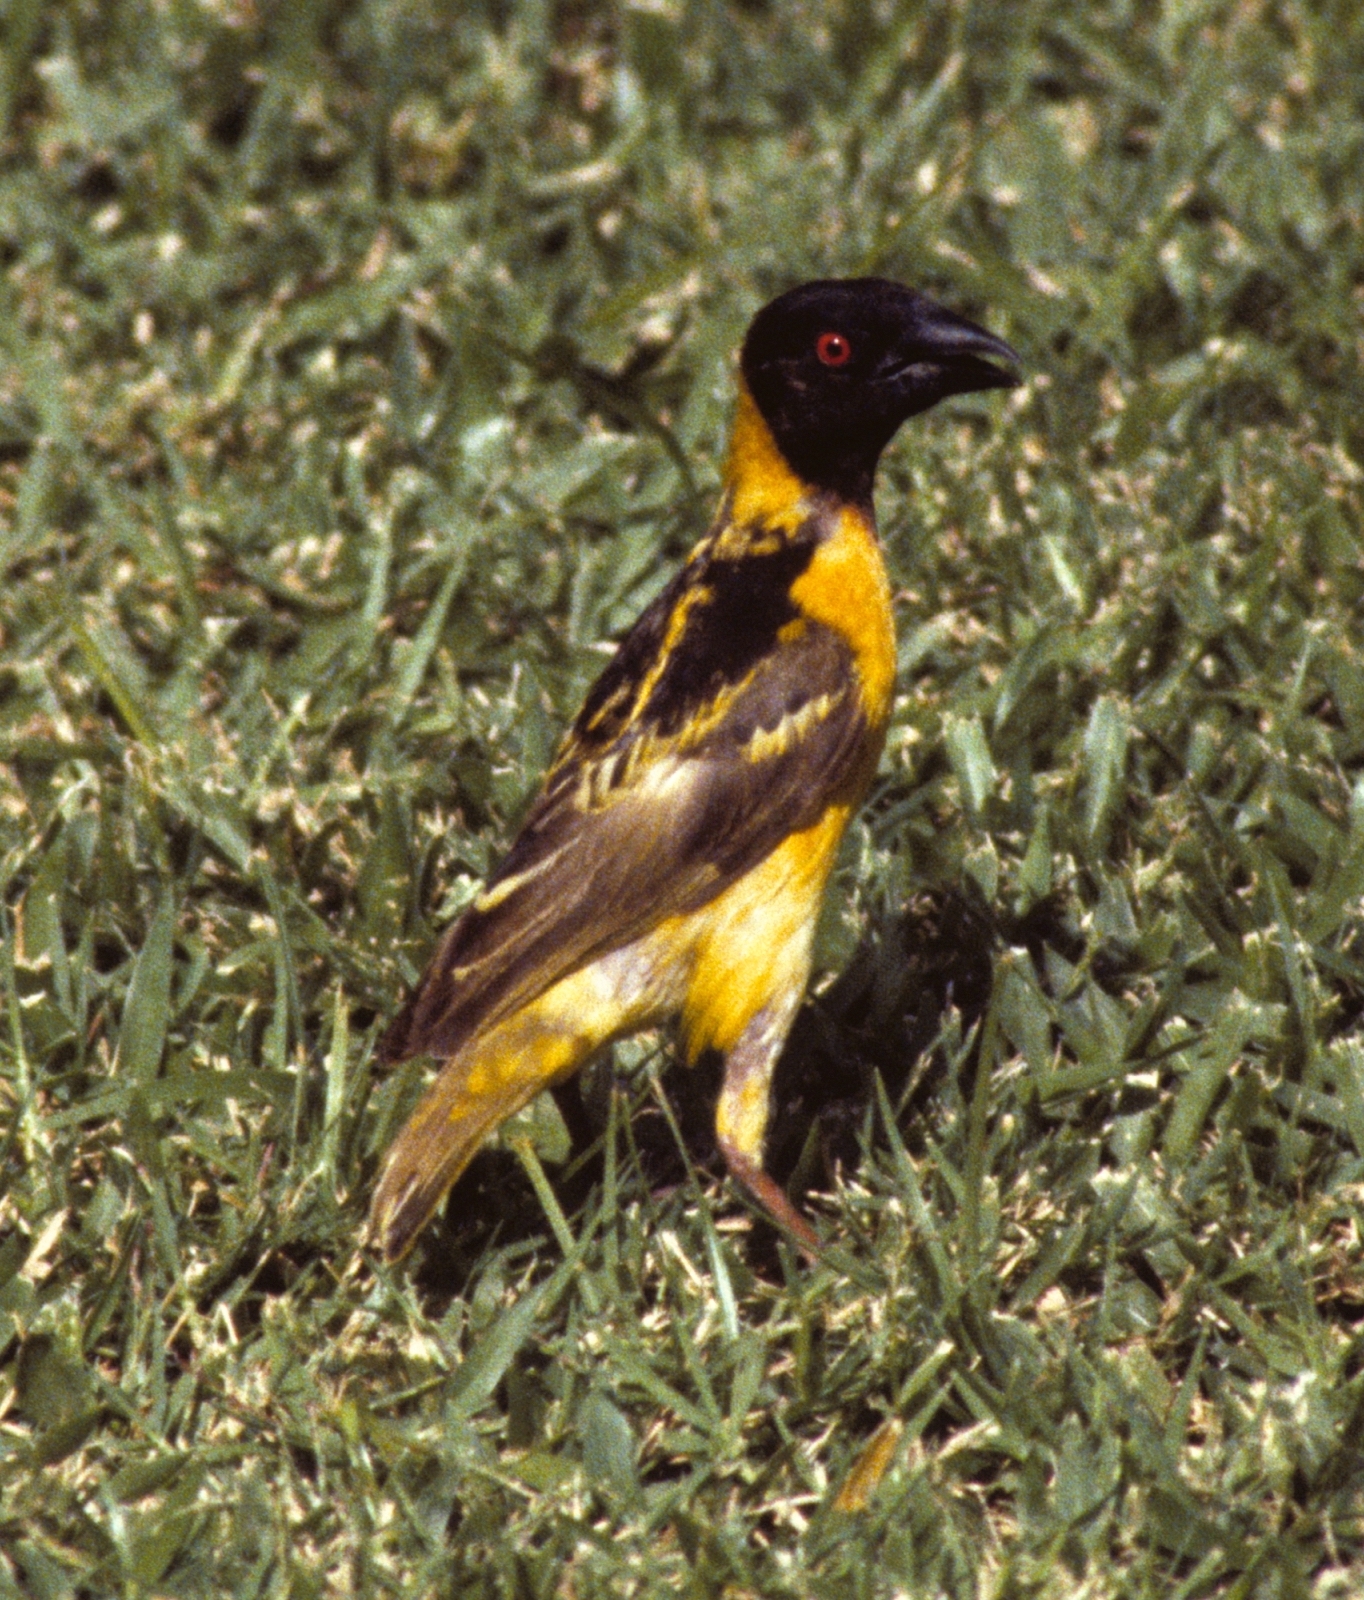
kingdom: Animalia
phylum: Chordata
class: Aves
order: Passeriformes
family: Ploceidae
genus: Ploceus
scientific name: Ploceus cucullatus
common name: Village weaver
